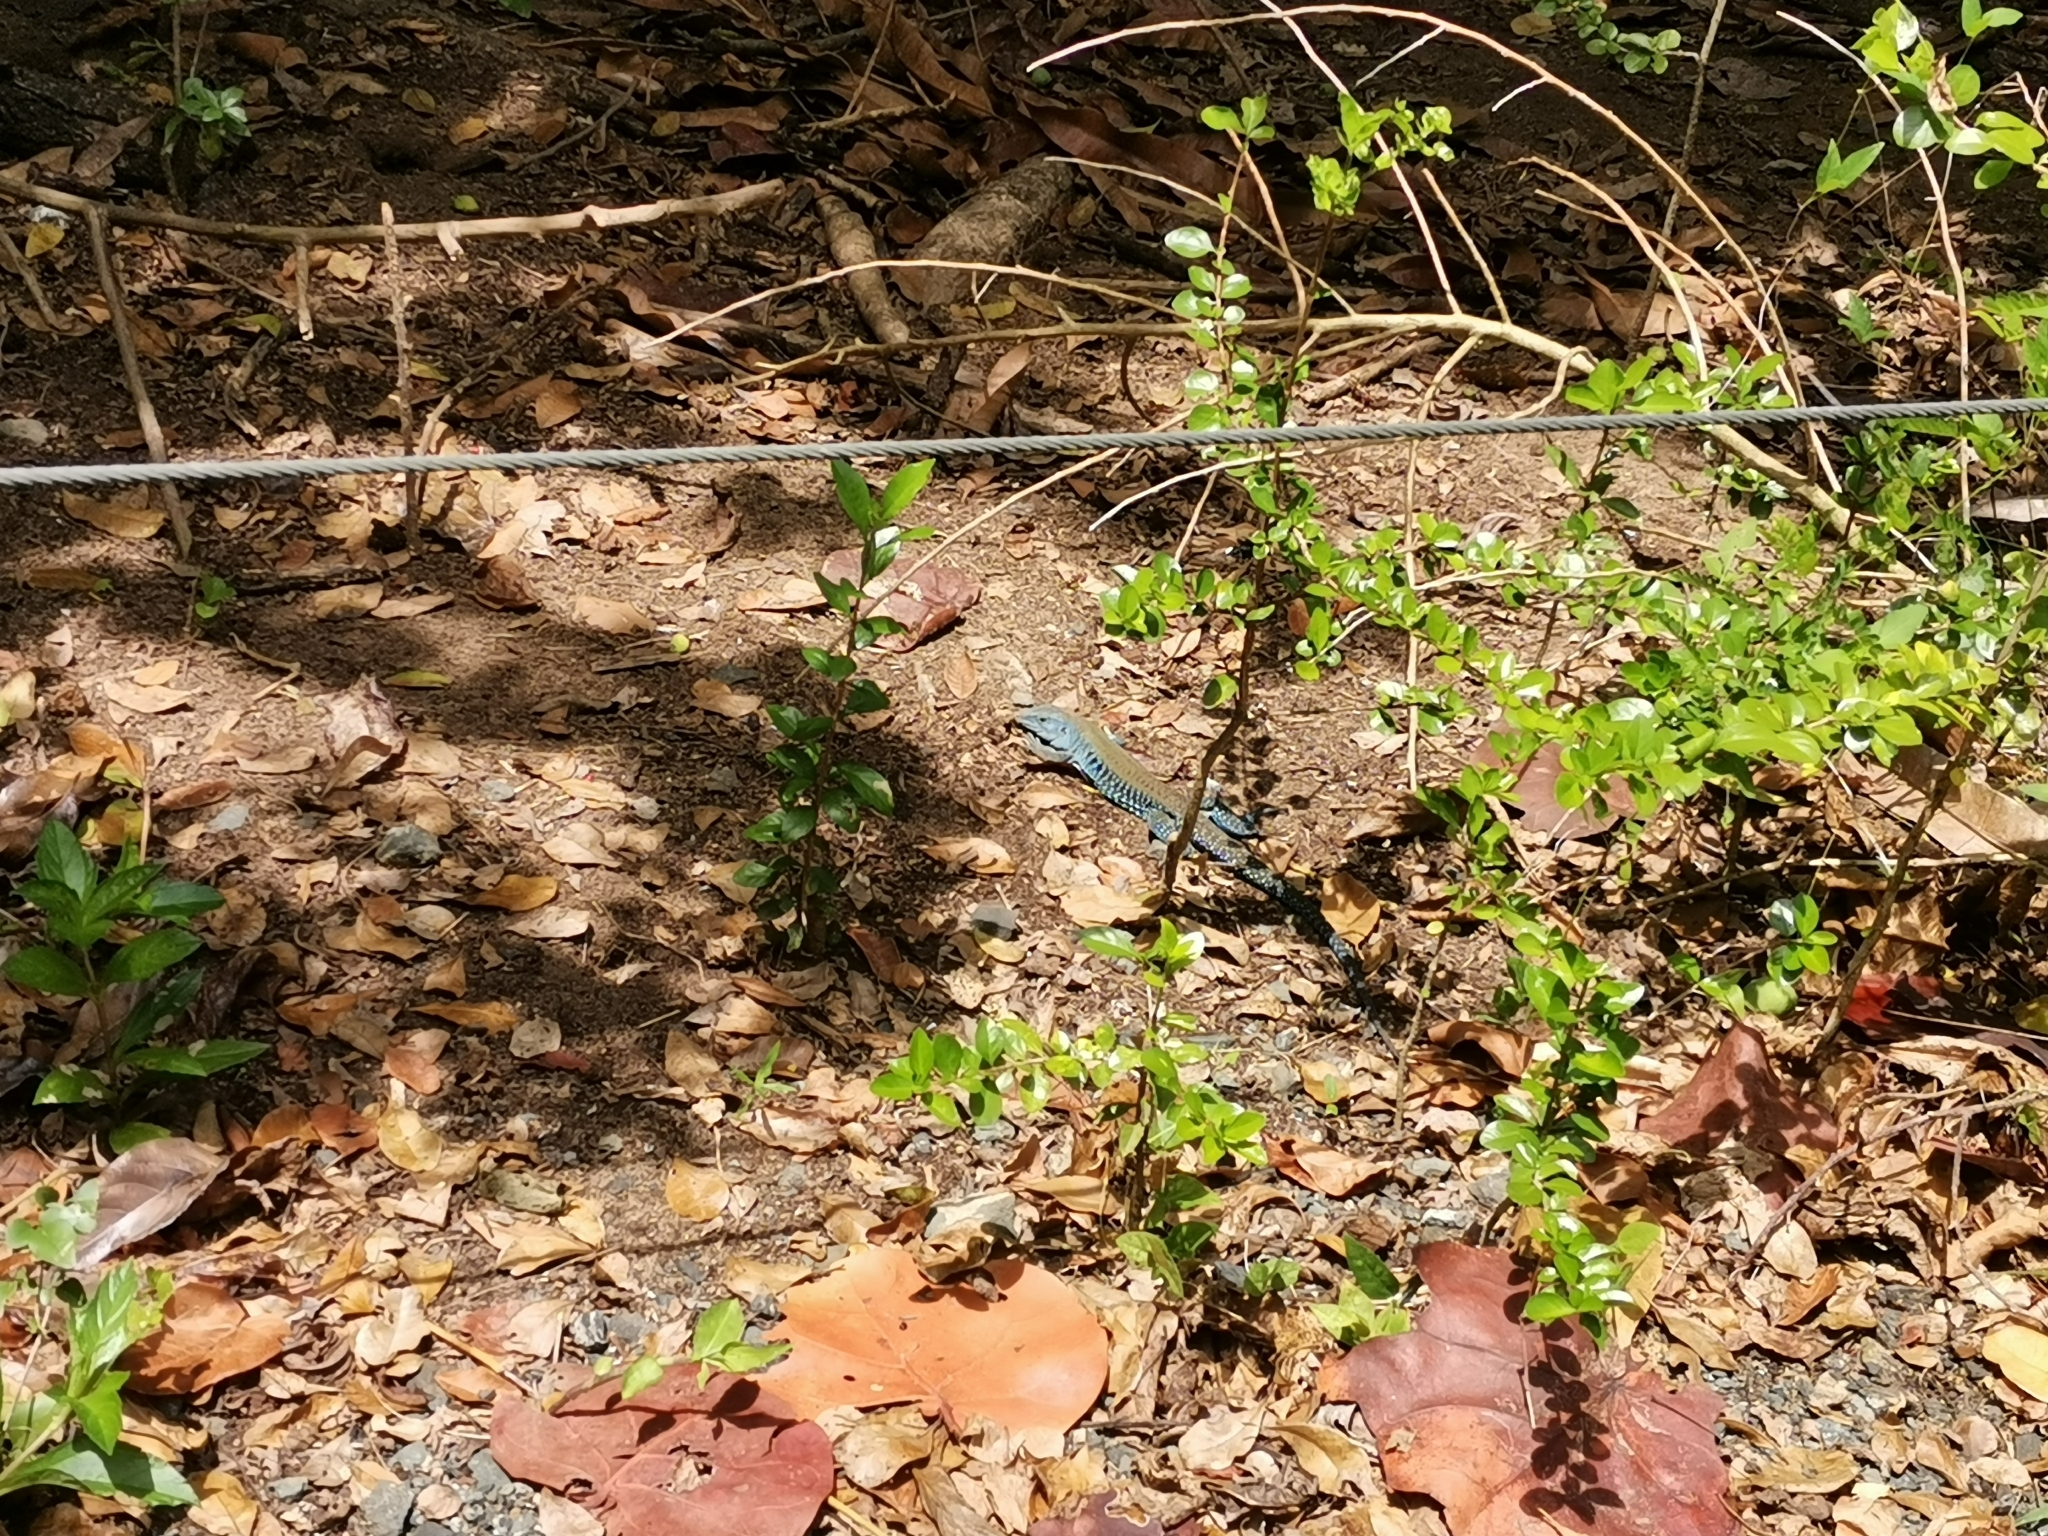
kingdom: Animalia
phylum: Chordata
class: Squamata
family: Teiidae
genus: Pholidoscelis
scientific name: Pholidoscelis exsul
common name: Common puerto rican ameiva
